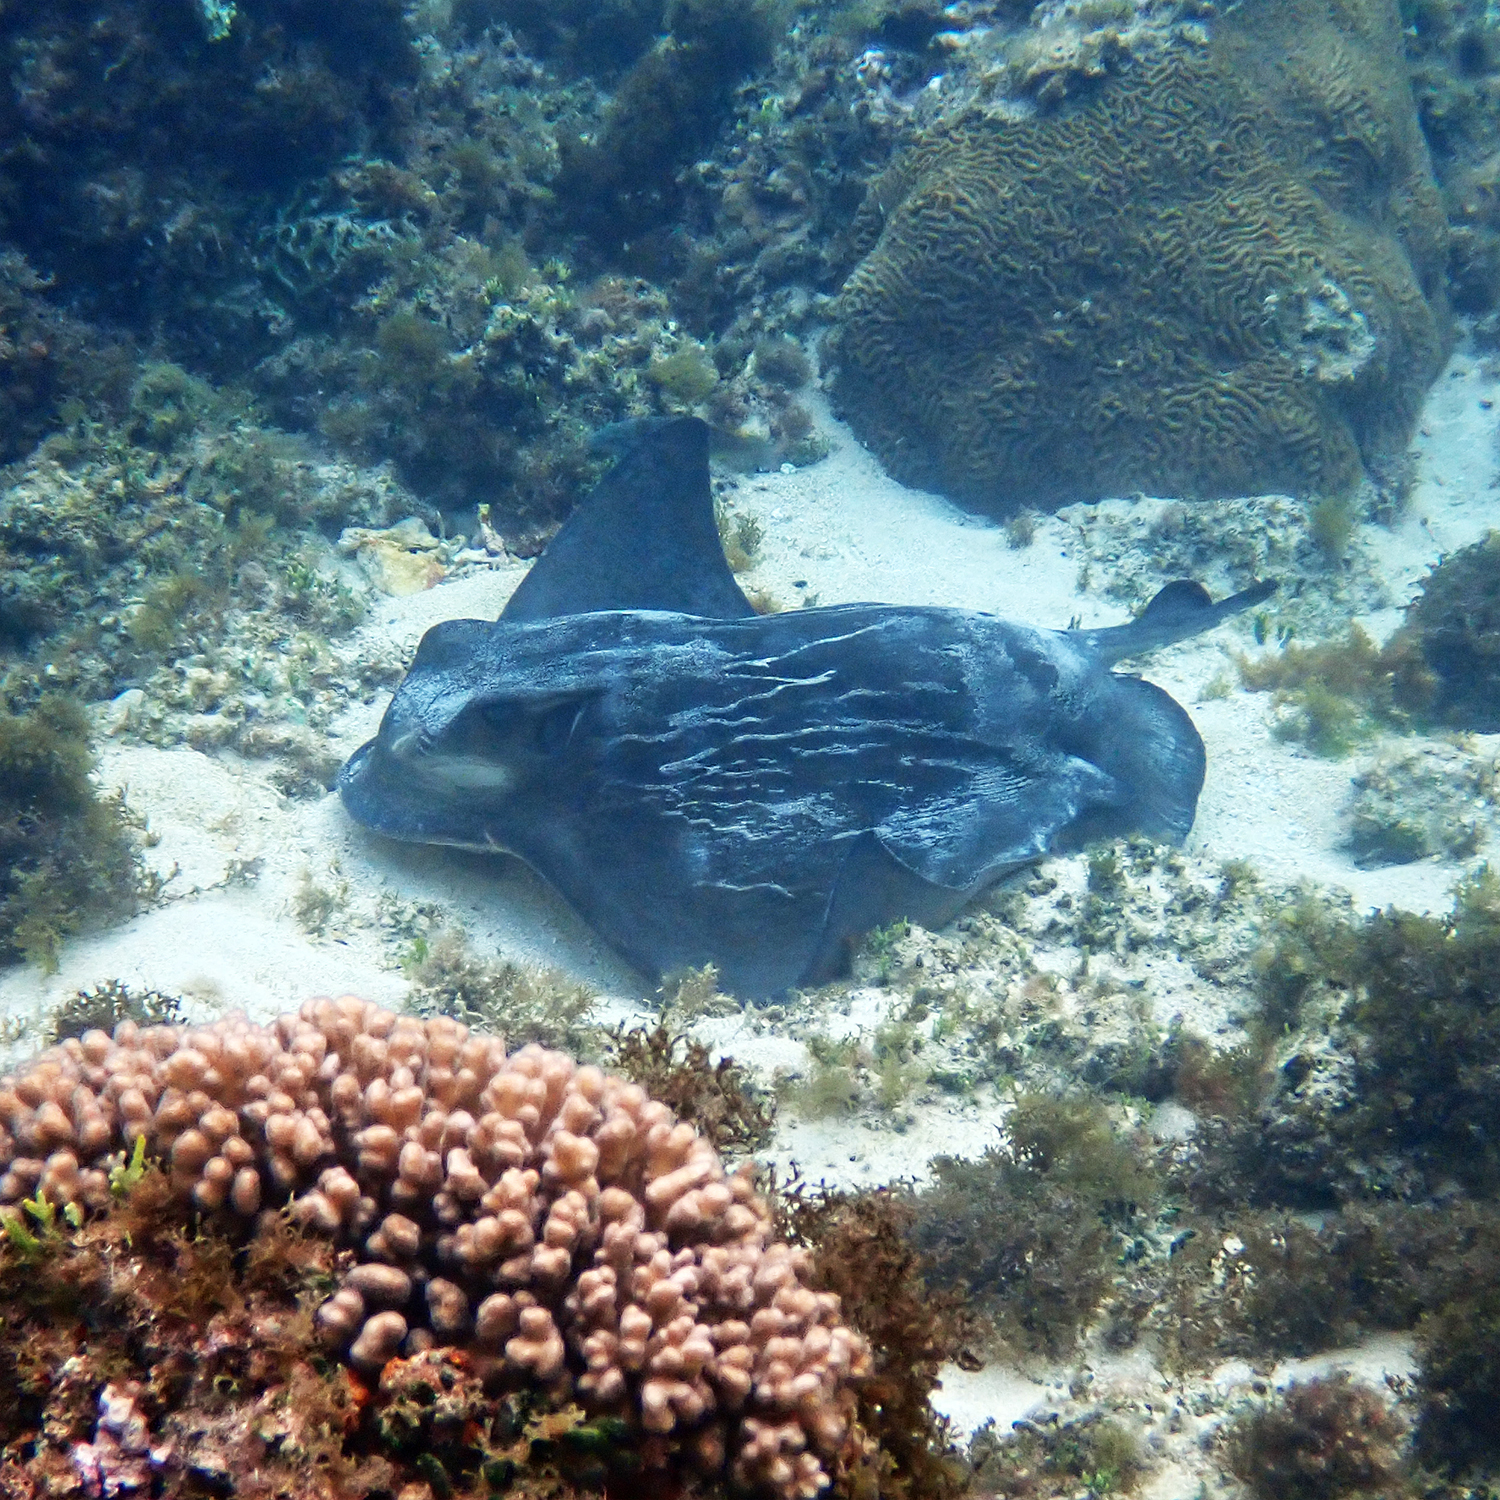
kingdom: Animalia
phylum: Chordata
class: Elasmobranchii
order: Myliobatiformes
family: Myliobatidae
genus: Myliobatis
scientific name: Myliobatis tenuicaudatus
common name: Eagle ray
